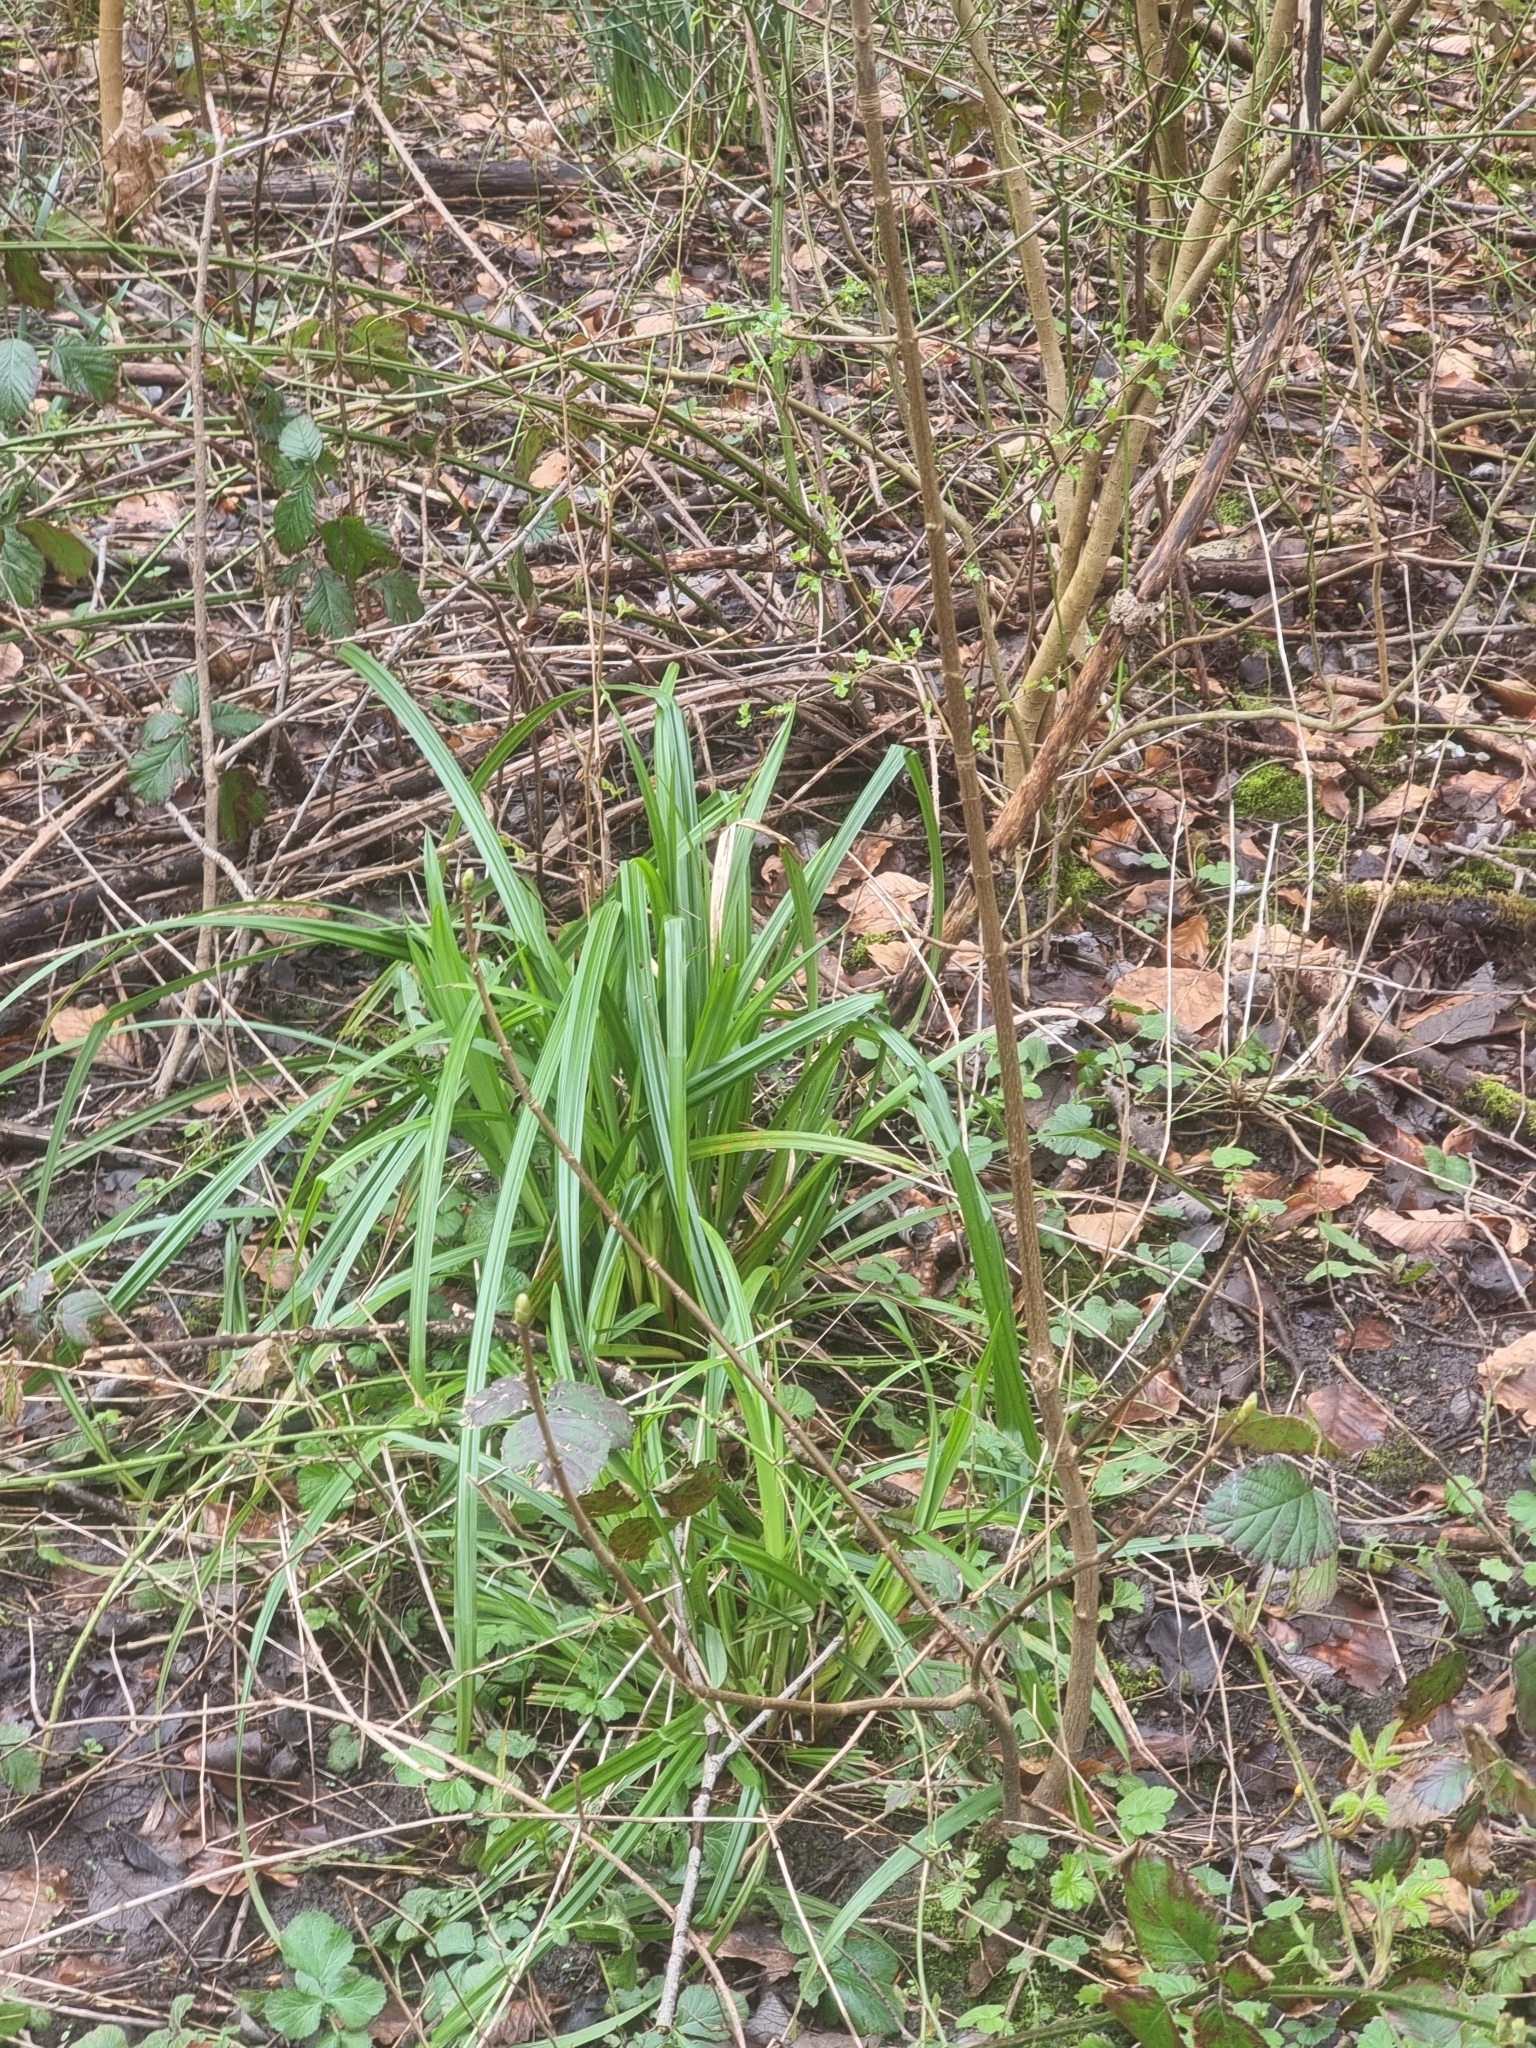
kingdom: Plantae
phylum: Tracheophyta
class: Liliopsida
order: Poales
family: Cyperaceae
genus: Carex
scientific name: Carex pendula
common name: Pendulous sedge
